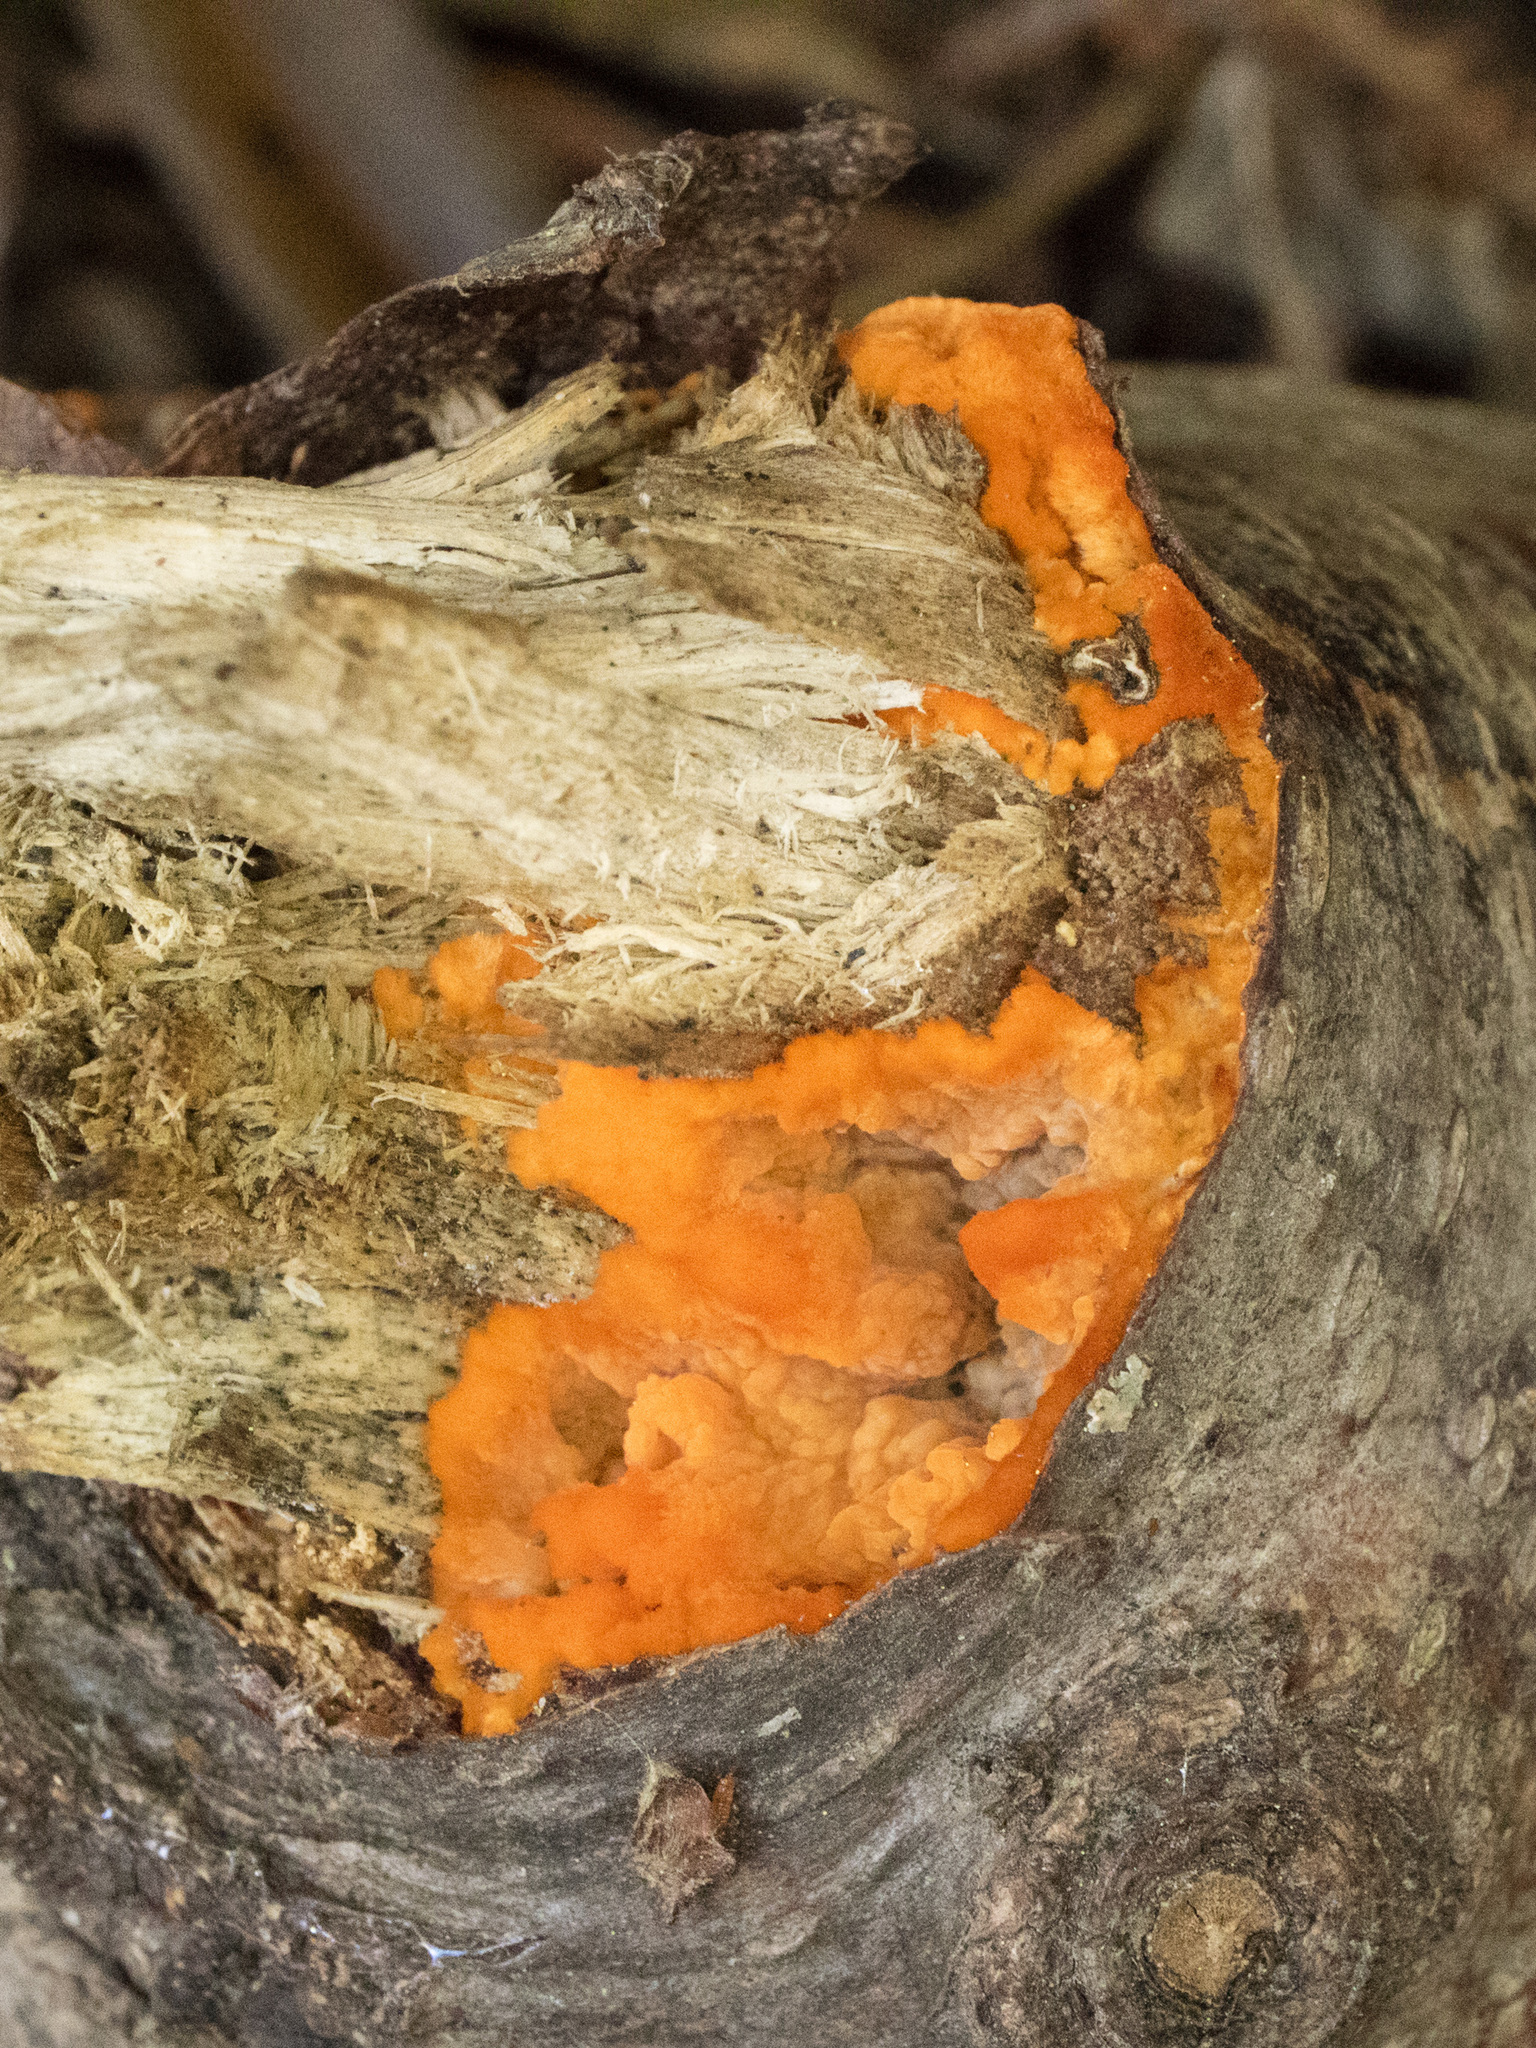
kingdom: Fungi
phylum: Basidiomycota
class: Agaricomycetes
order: Polyporales
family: Meruliaceae
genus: Phlebia
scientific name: Phlebia radiata
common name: Wrinkled crust
